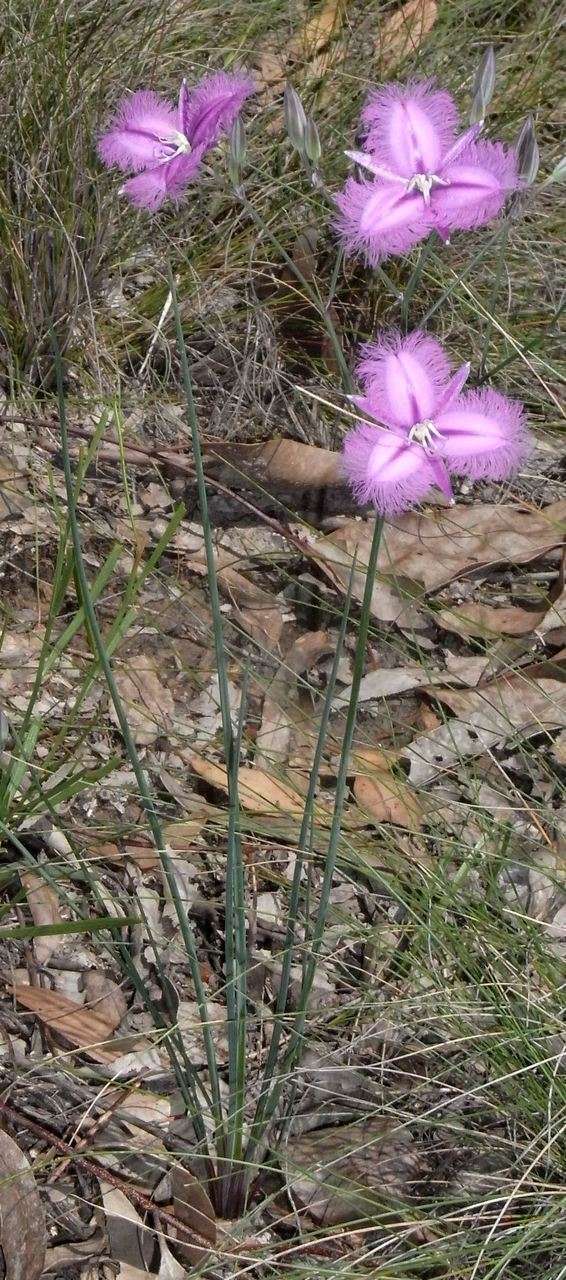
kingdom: Plantae
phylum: Tracheophyta
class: Liliopsida
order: Asparagales
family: Asparagaceae
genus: Thysanotus
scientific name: Thysanotus tuberosus
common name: Common fringed-lily
